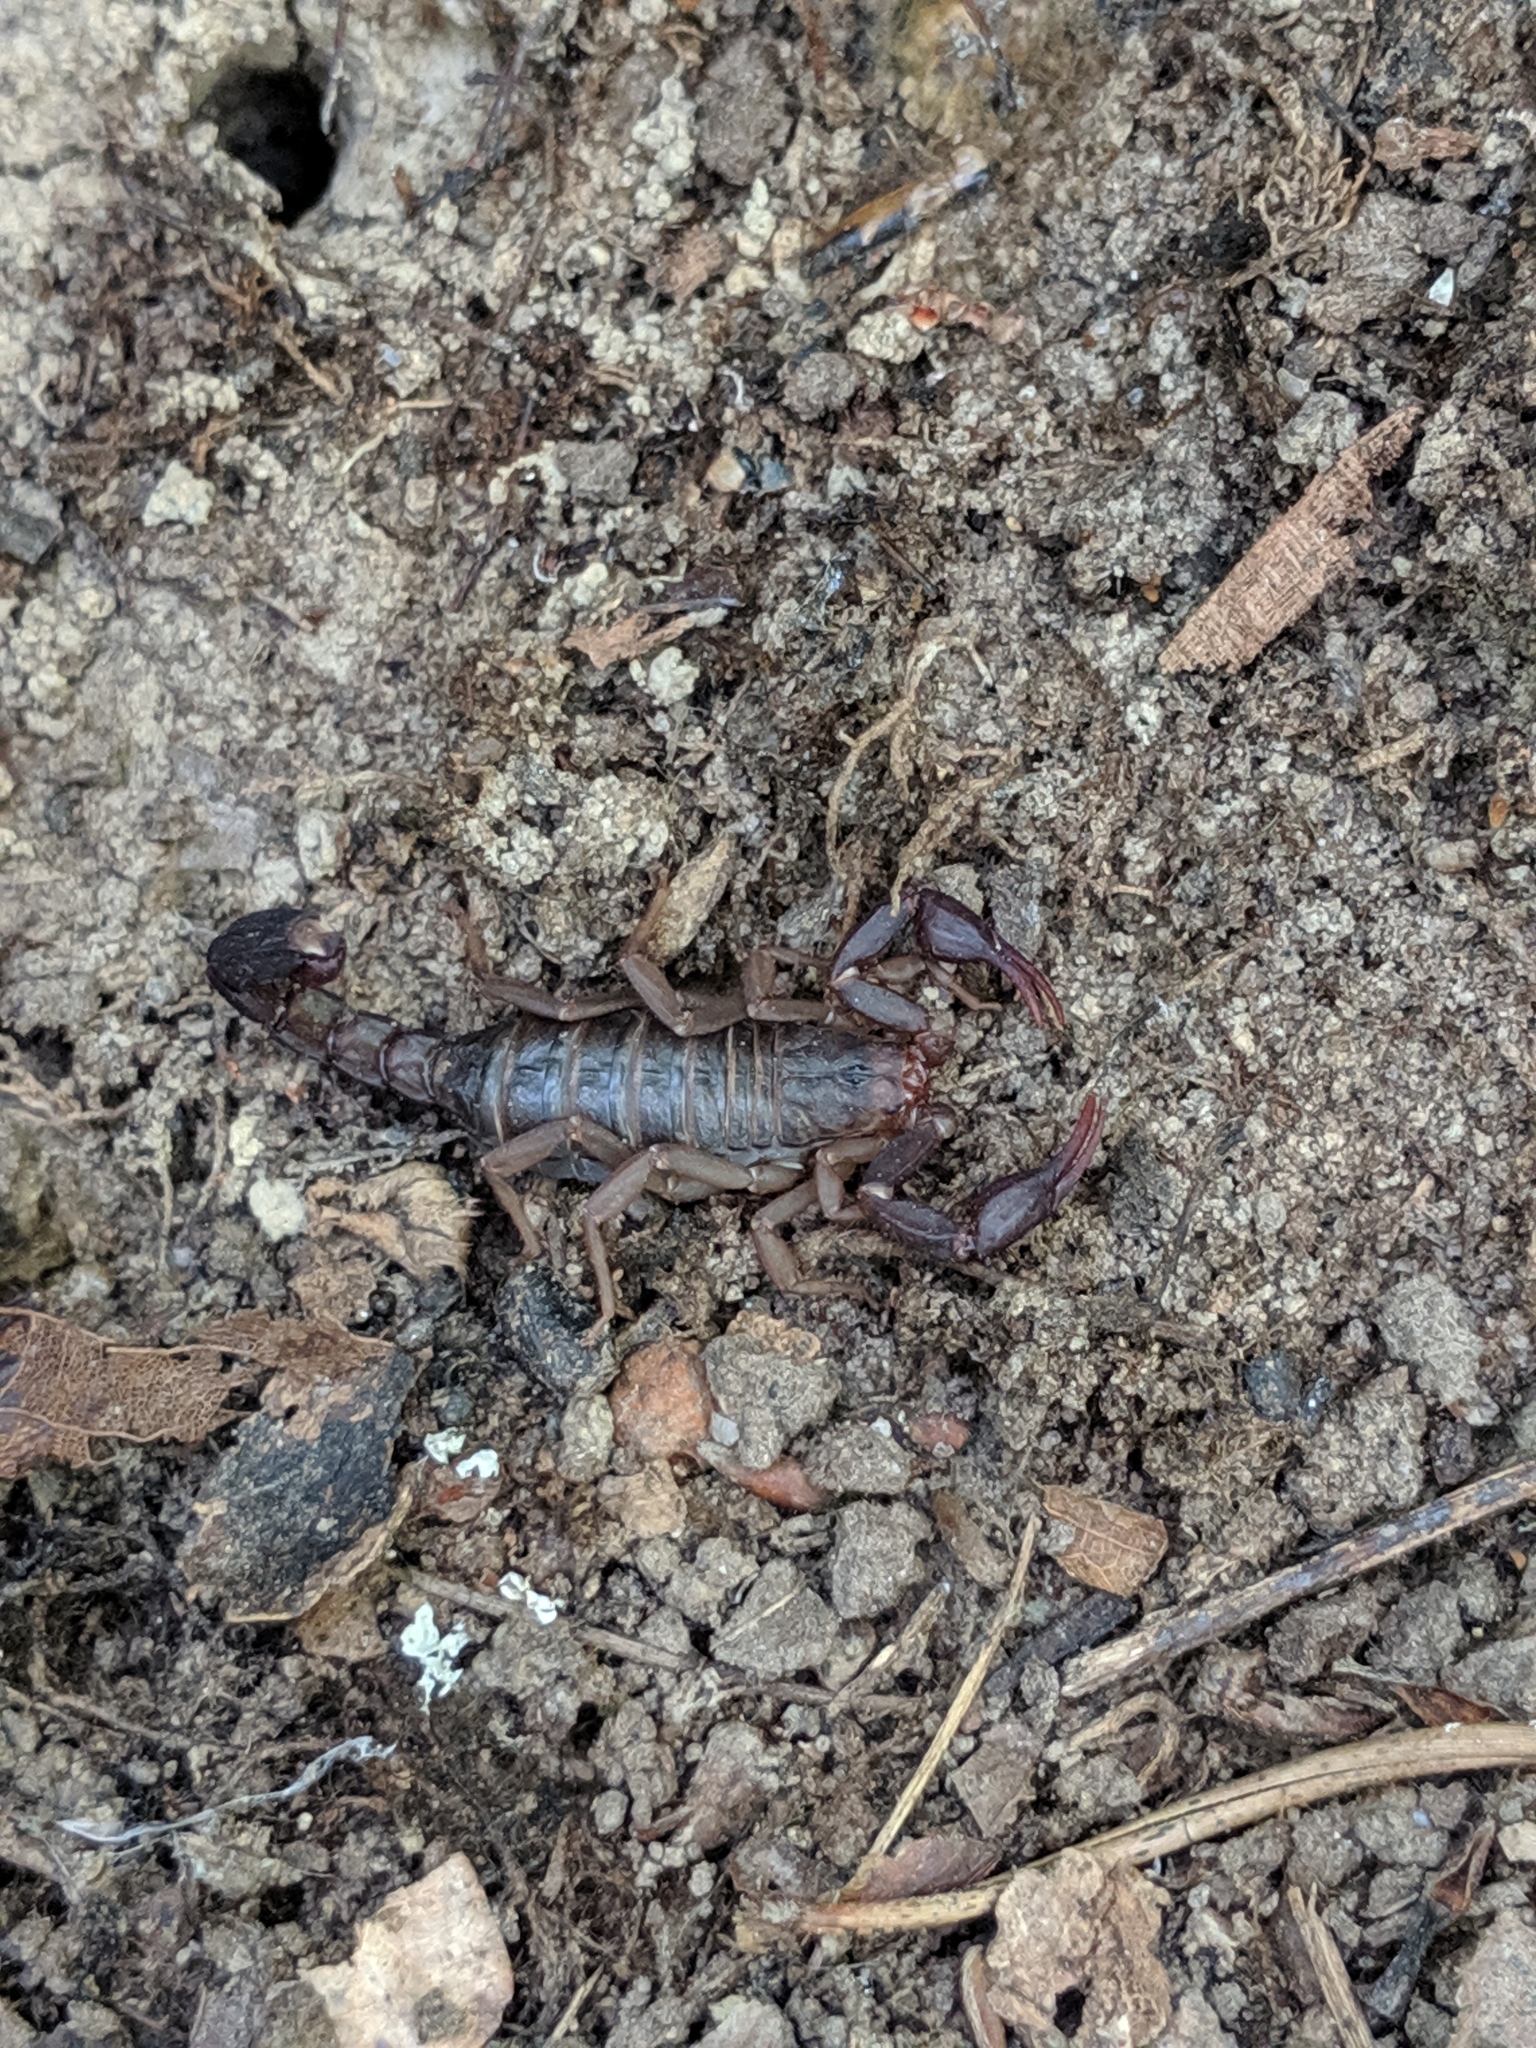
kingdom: Animalia
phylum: Arthropoda
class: Arachnida
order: Scorpiones
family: Vaejovidae
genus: Vaejovis
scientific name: Vaejovis carolinianus
